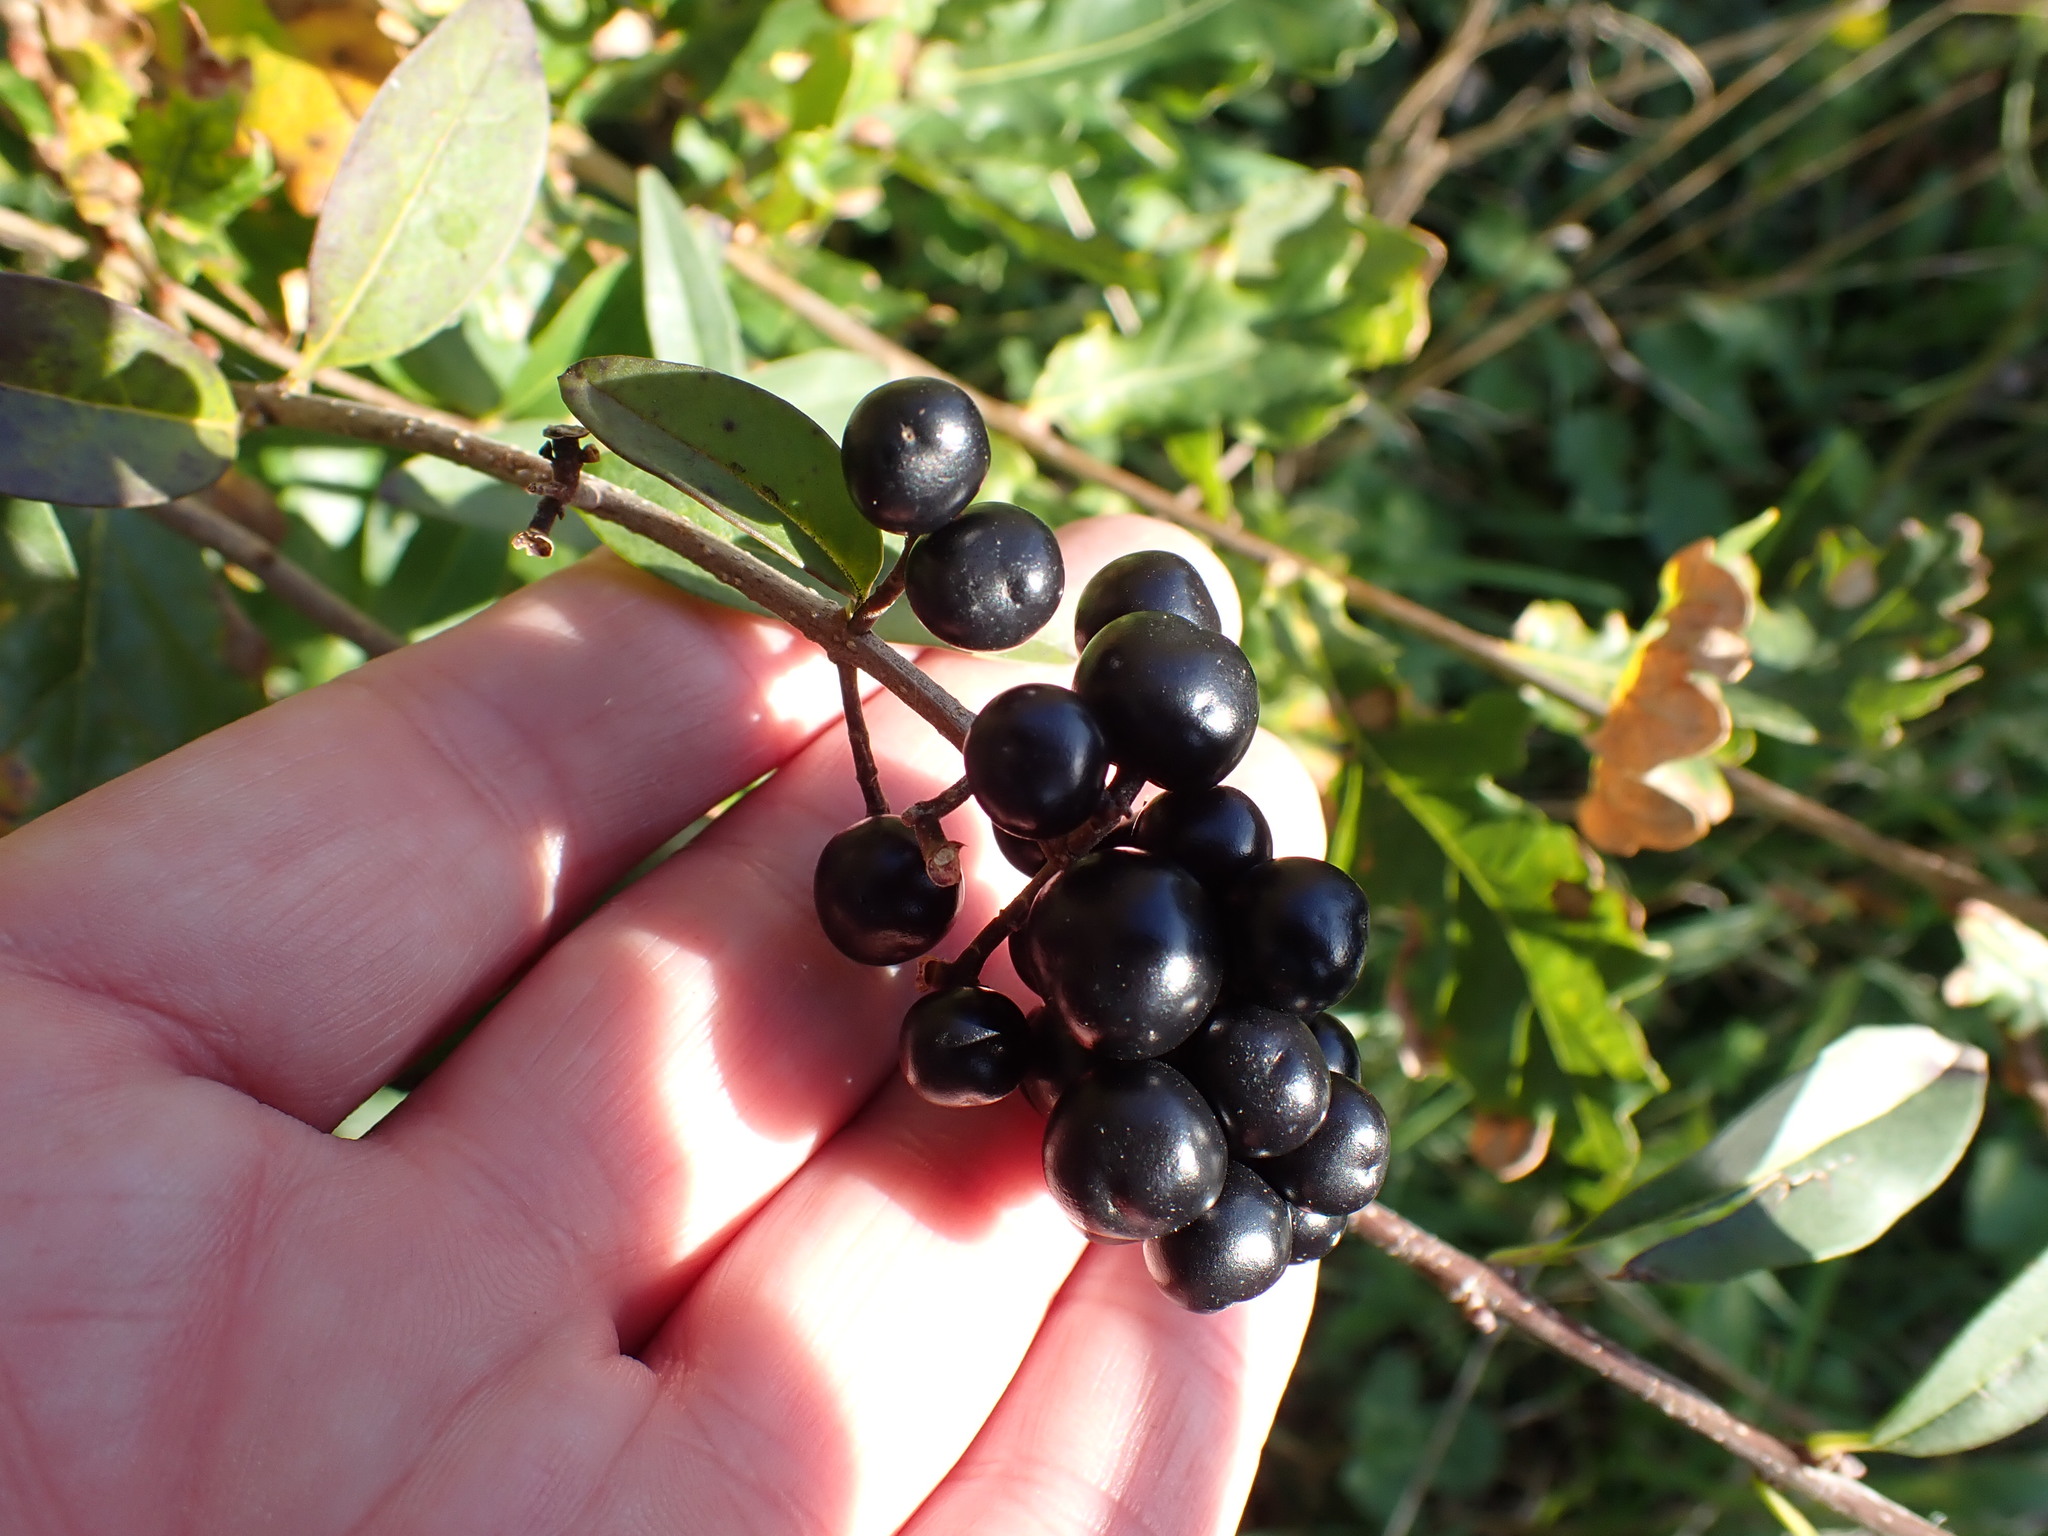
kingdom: Plantae
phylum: Tracheophyta
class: Magnoliopsida
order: Lamiales
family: Oleaceae
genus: Ligustrum
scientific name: Ligustrum vulgare
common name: Wild privet
